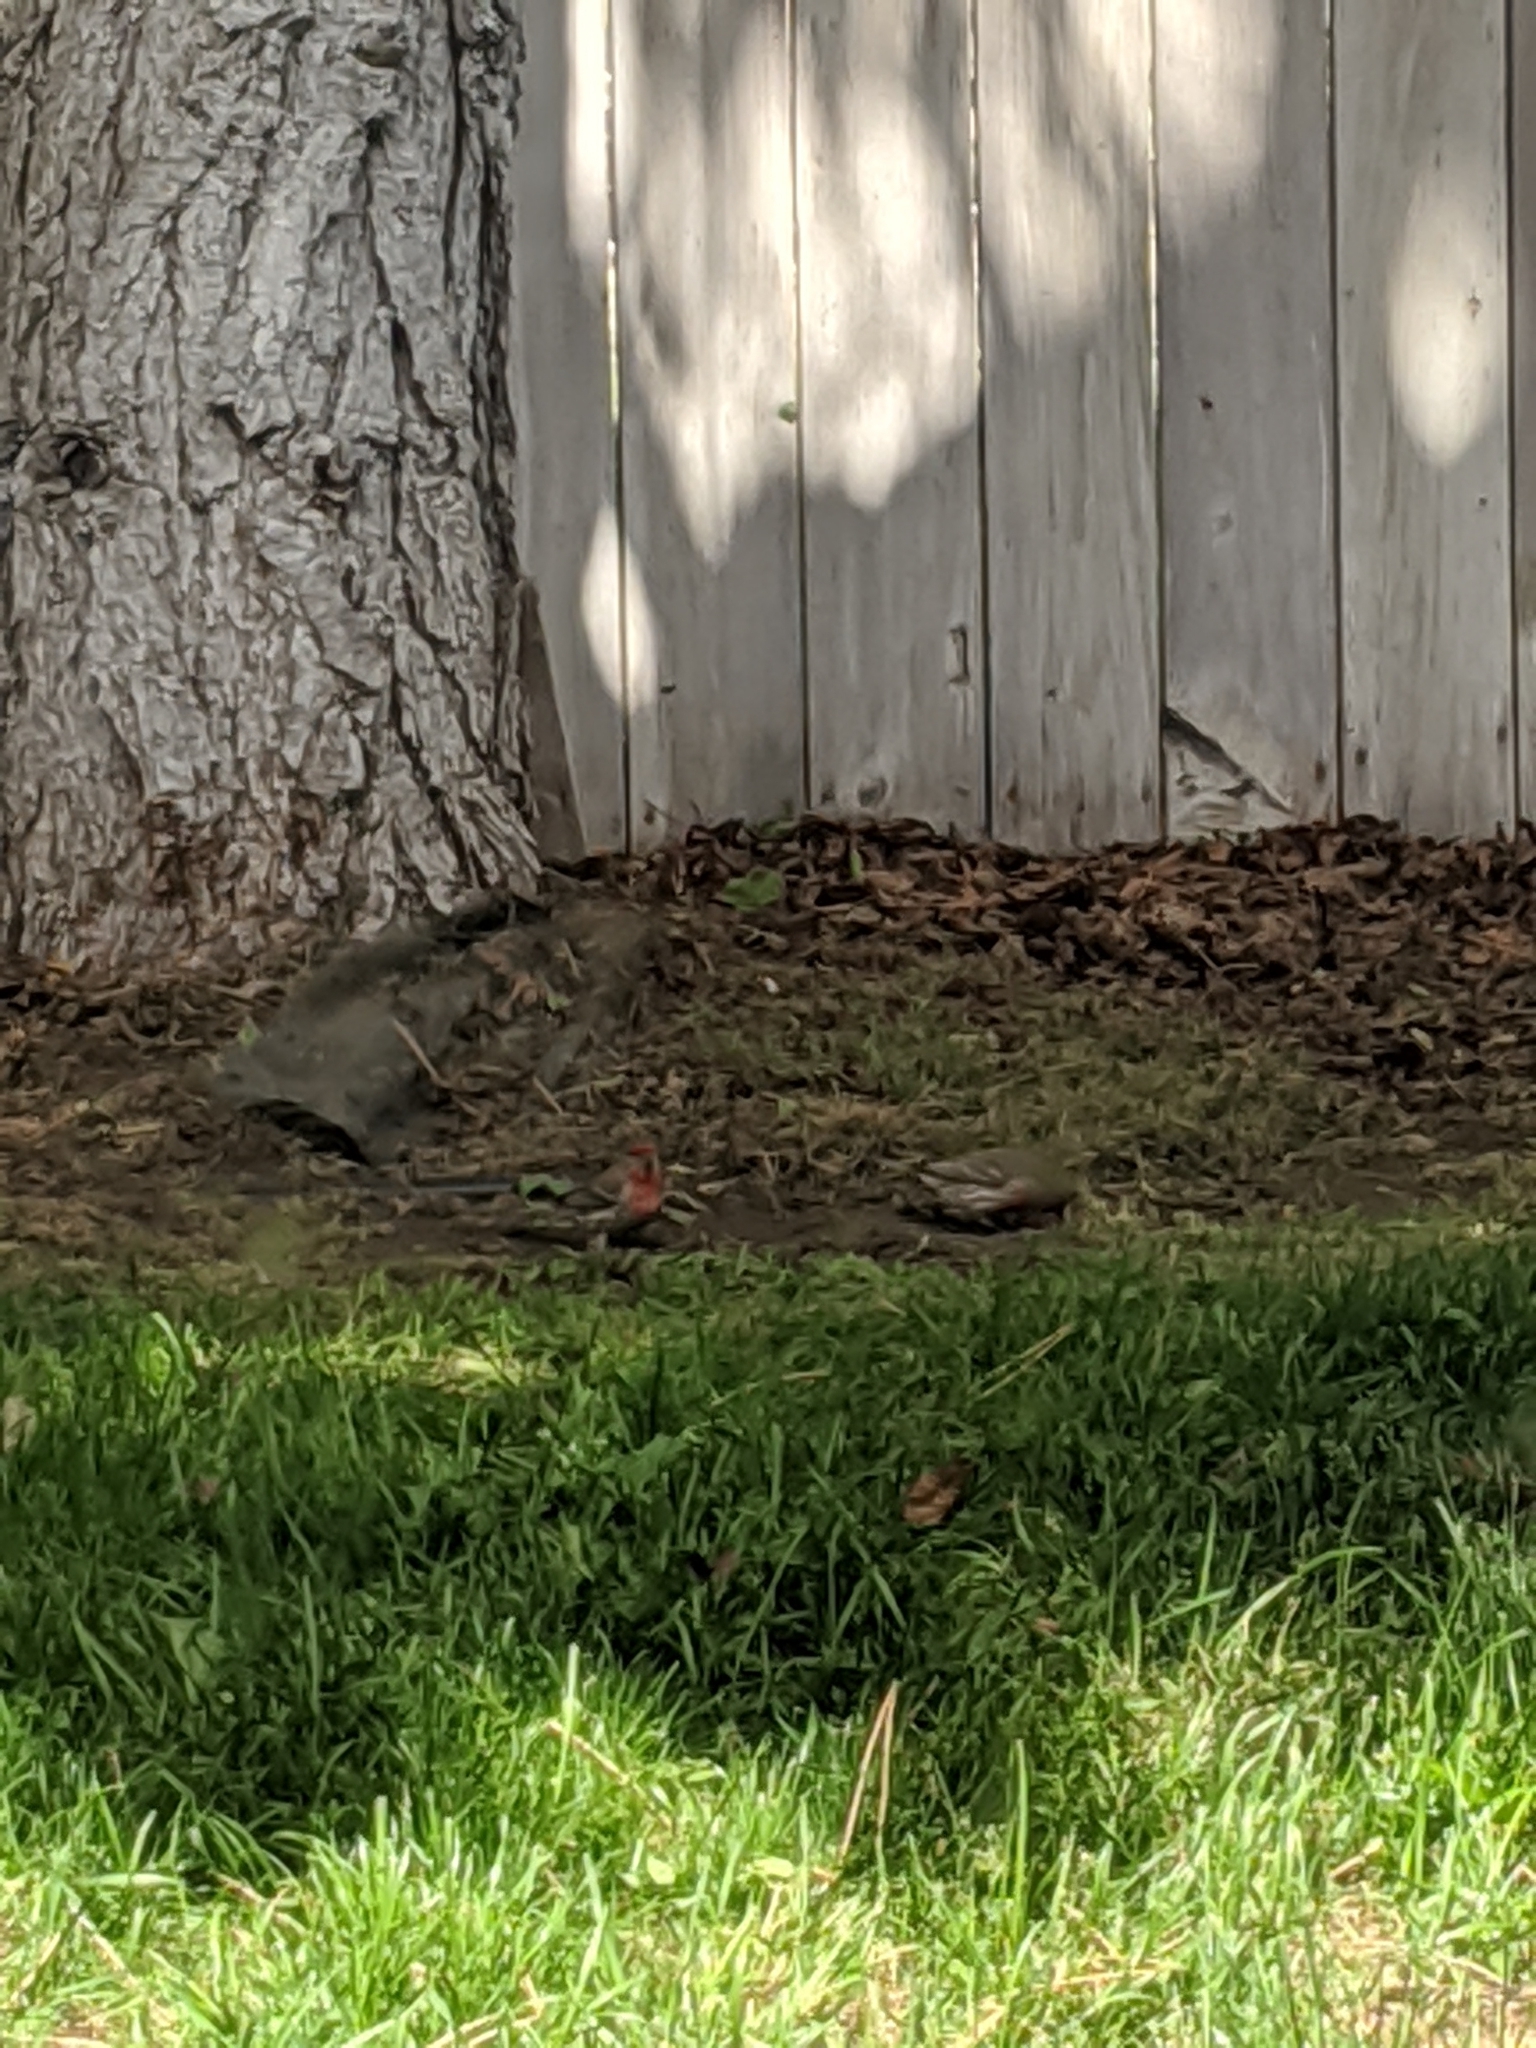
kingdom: Animalia
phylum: Chordata
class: Aves
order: Passeriformes
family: Fringillidae
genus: Haemorhous
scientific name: Haemorhous mexicanus
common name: House finch
